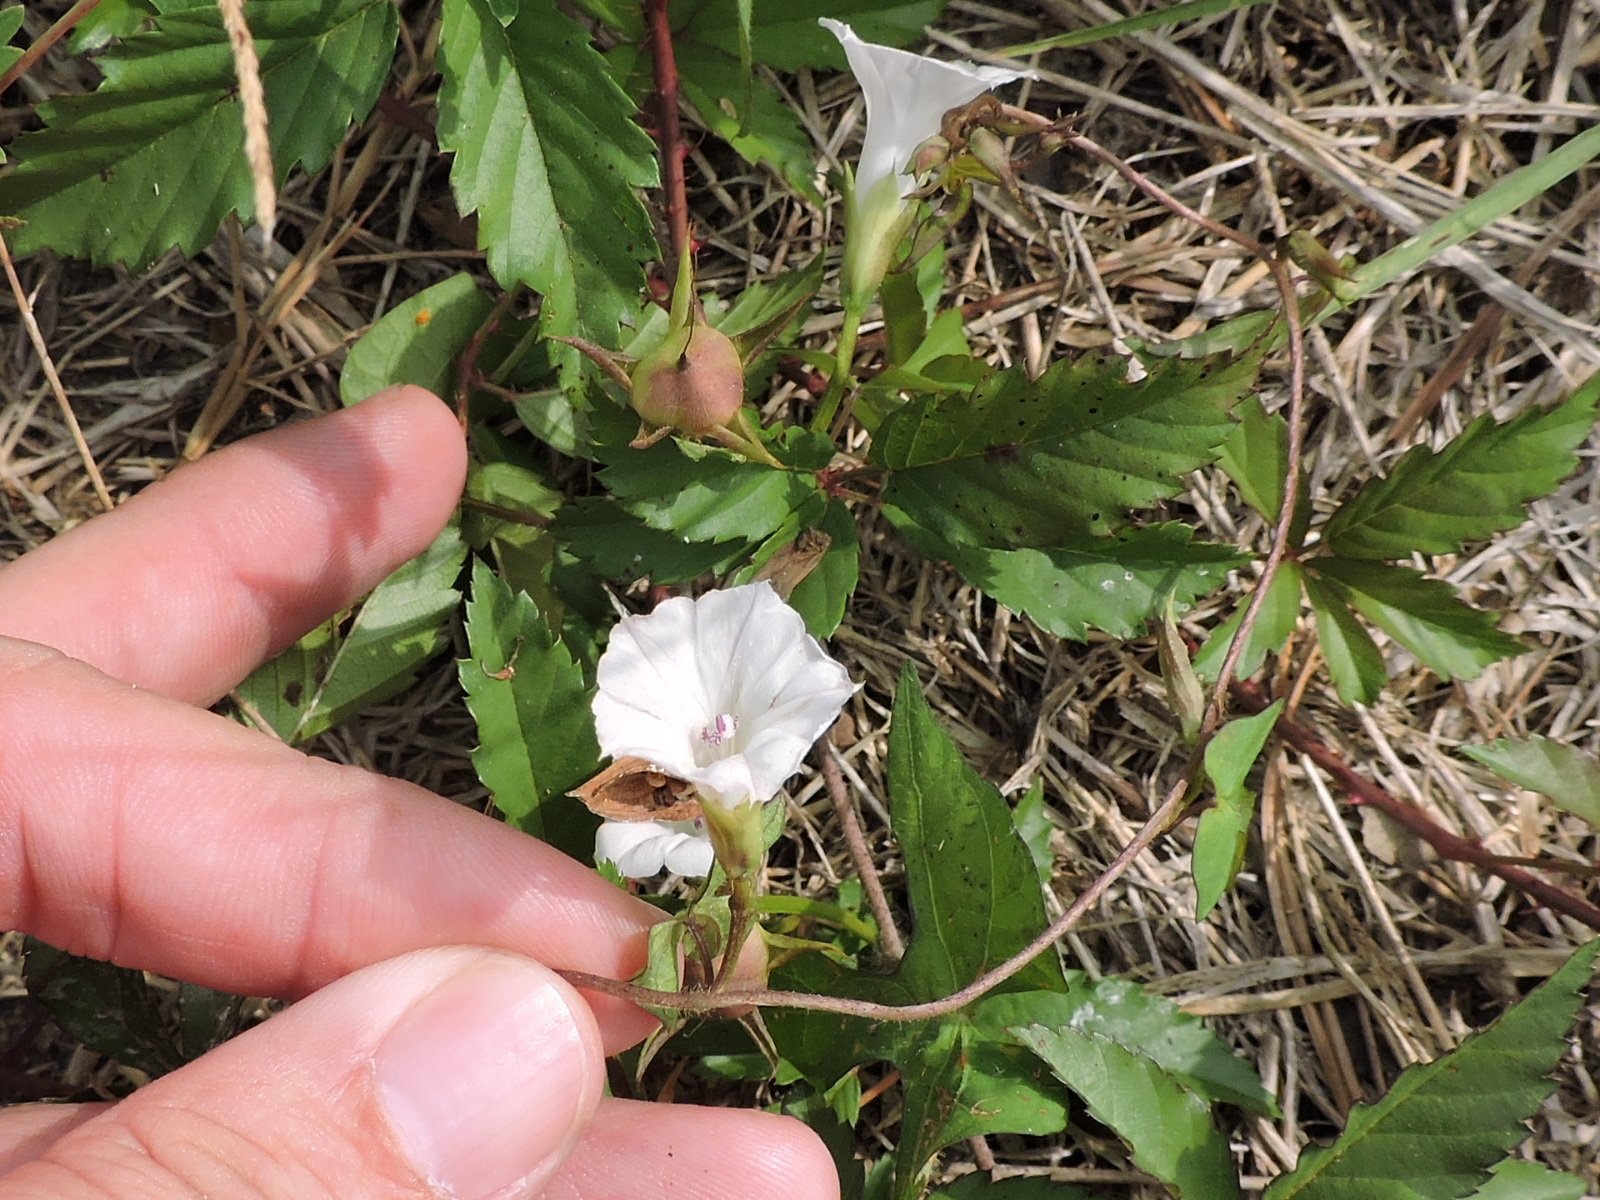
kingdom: Plantae
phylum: Tracheophyta
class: Magnoliopsida
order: Solanales
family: Convolvulaceae
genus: Ipomoea
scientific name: Ipomoea lacunosa
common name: White morning-glory
